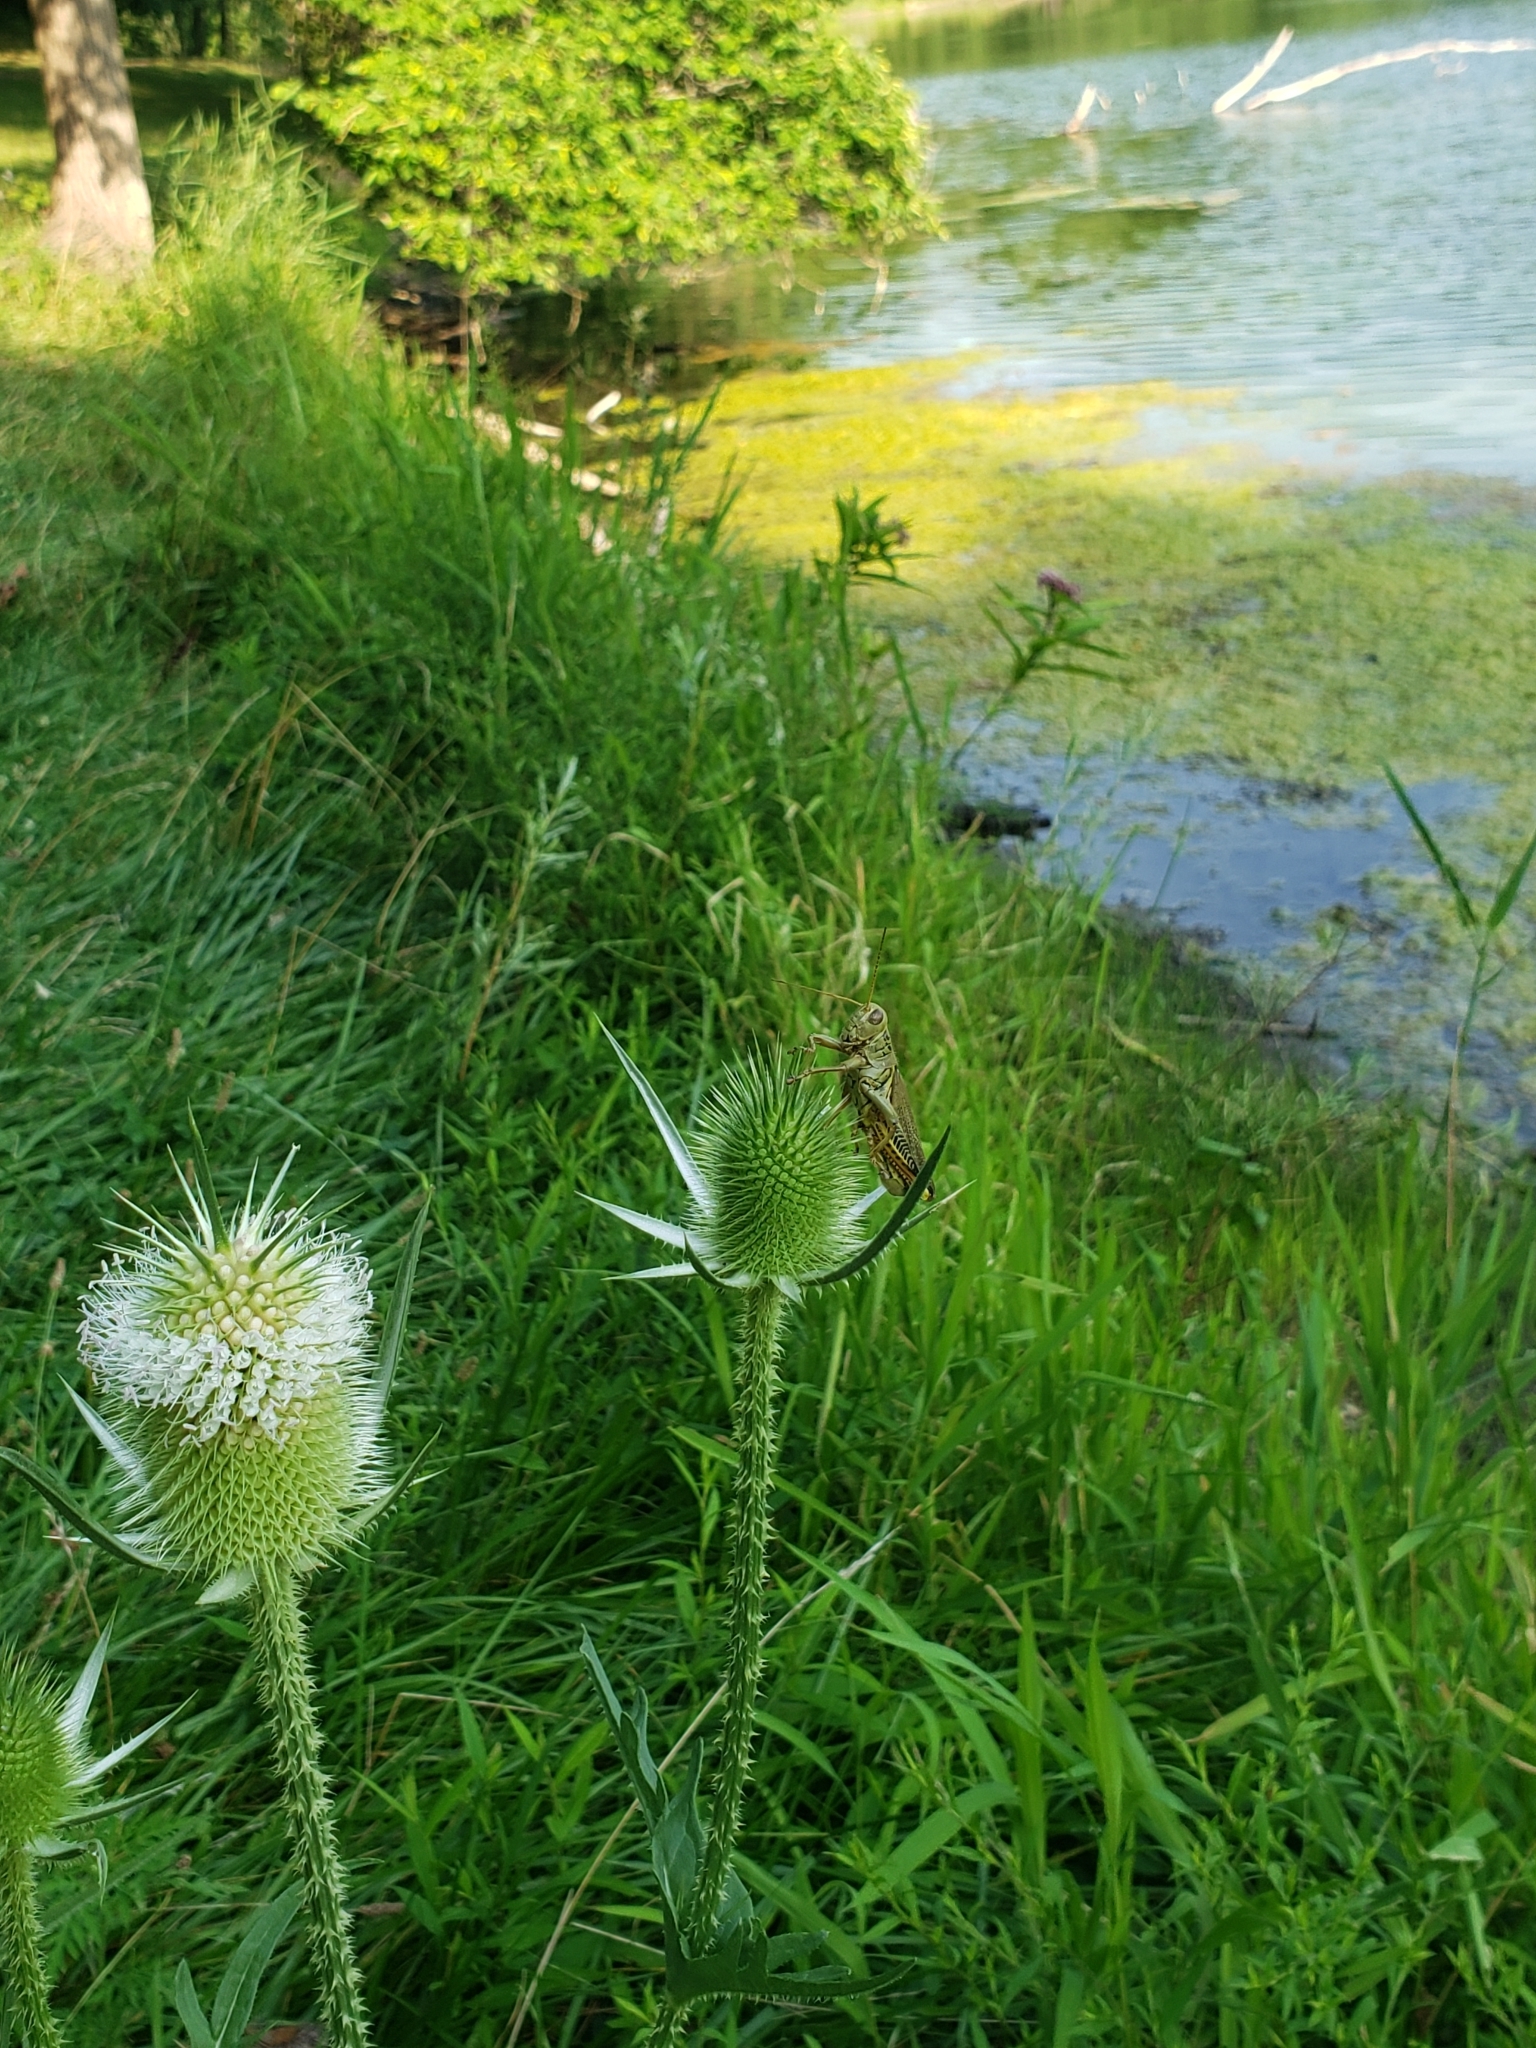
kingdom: Animalia
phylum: Arthropoda
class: Insecta
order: Orthoptera
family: Acrididae
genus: Melanoplus
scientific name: Melanoplus differentialis
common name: Differential grasshopper
